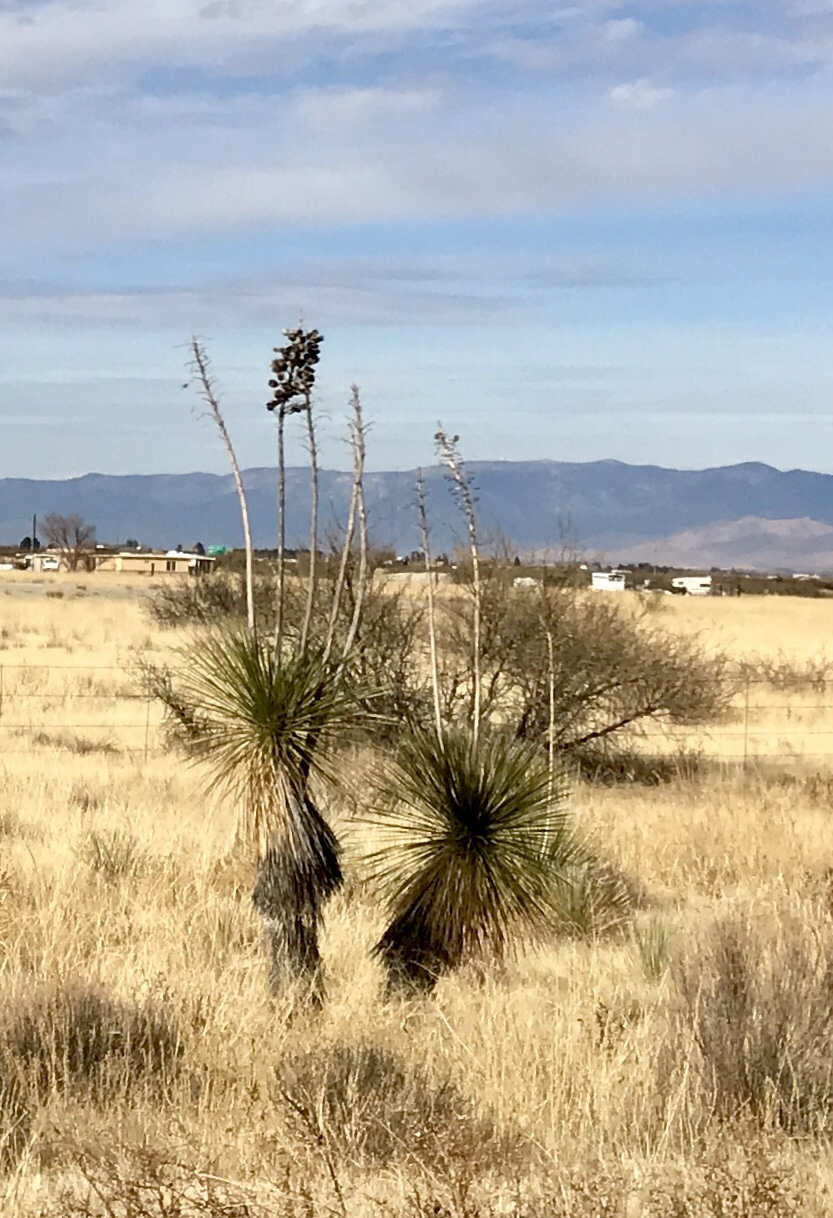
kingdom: Plantae
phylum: Tracheophyta
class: Liliopsida
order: Asparagales
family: Asparagaceae
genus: Yucca
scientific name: Yucca elata
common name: Palmella
